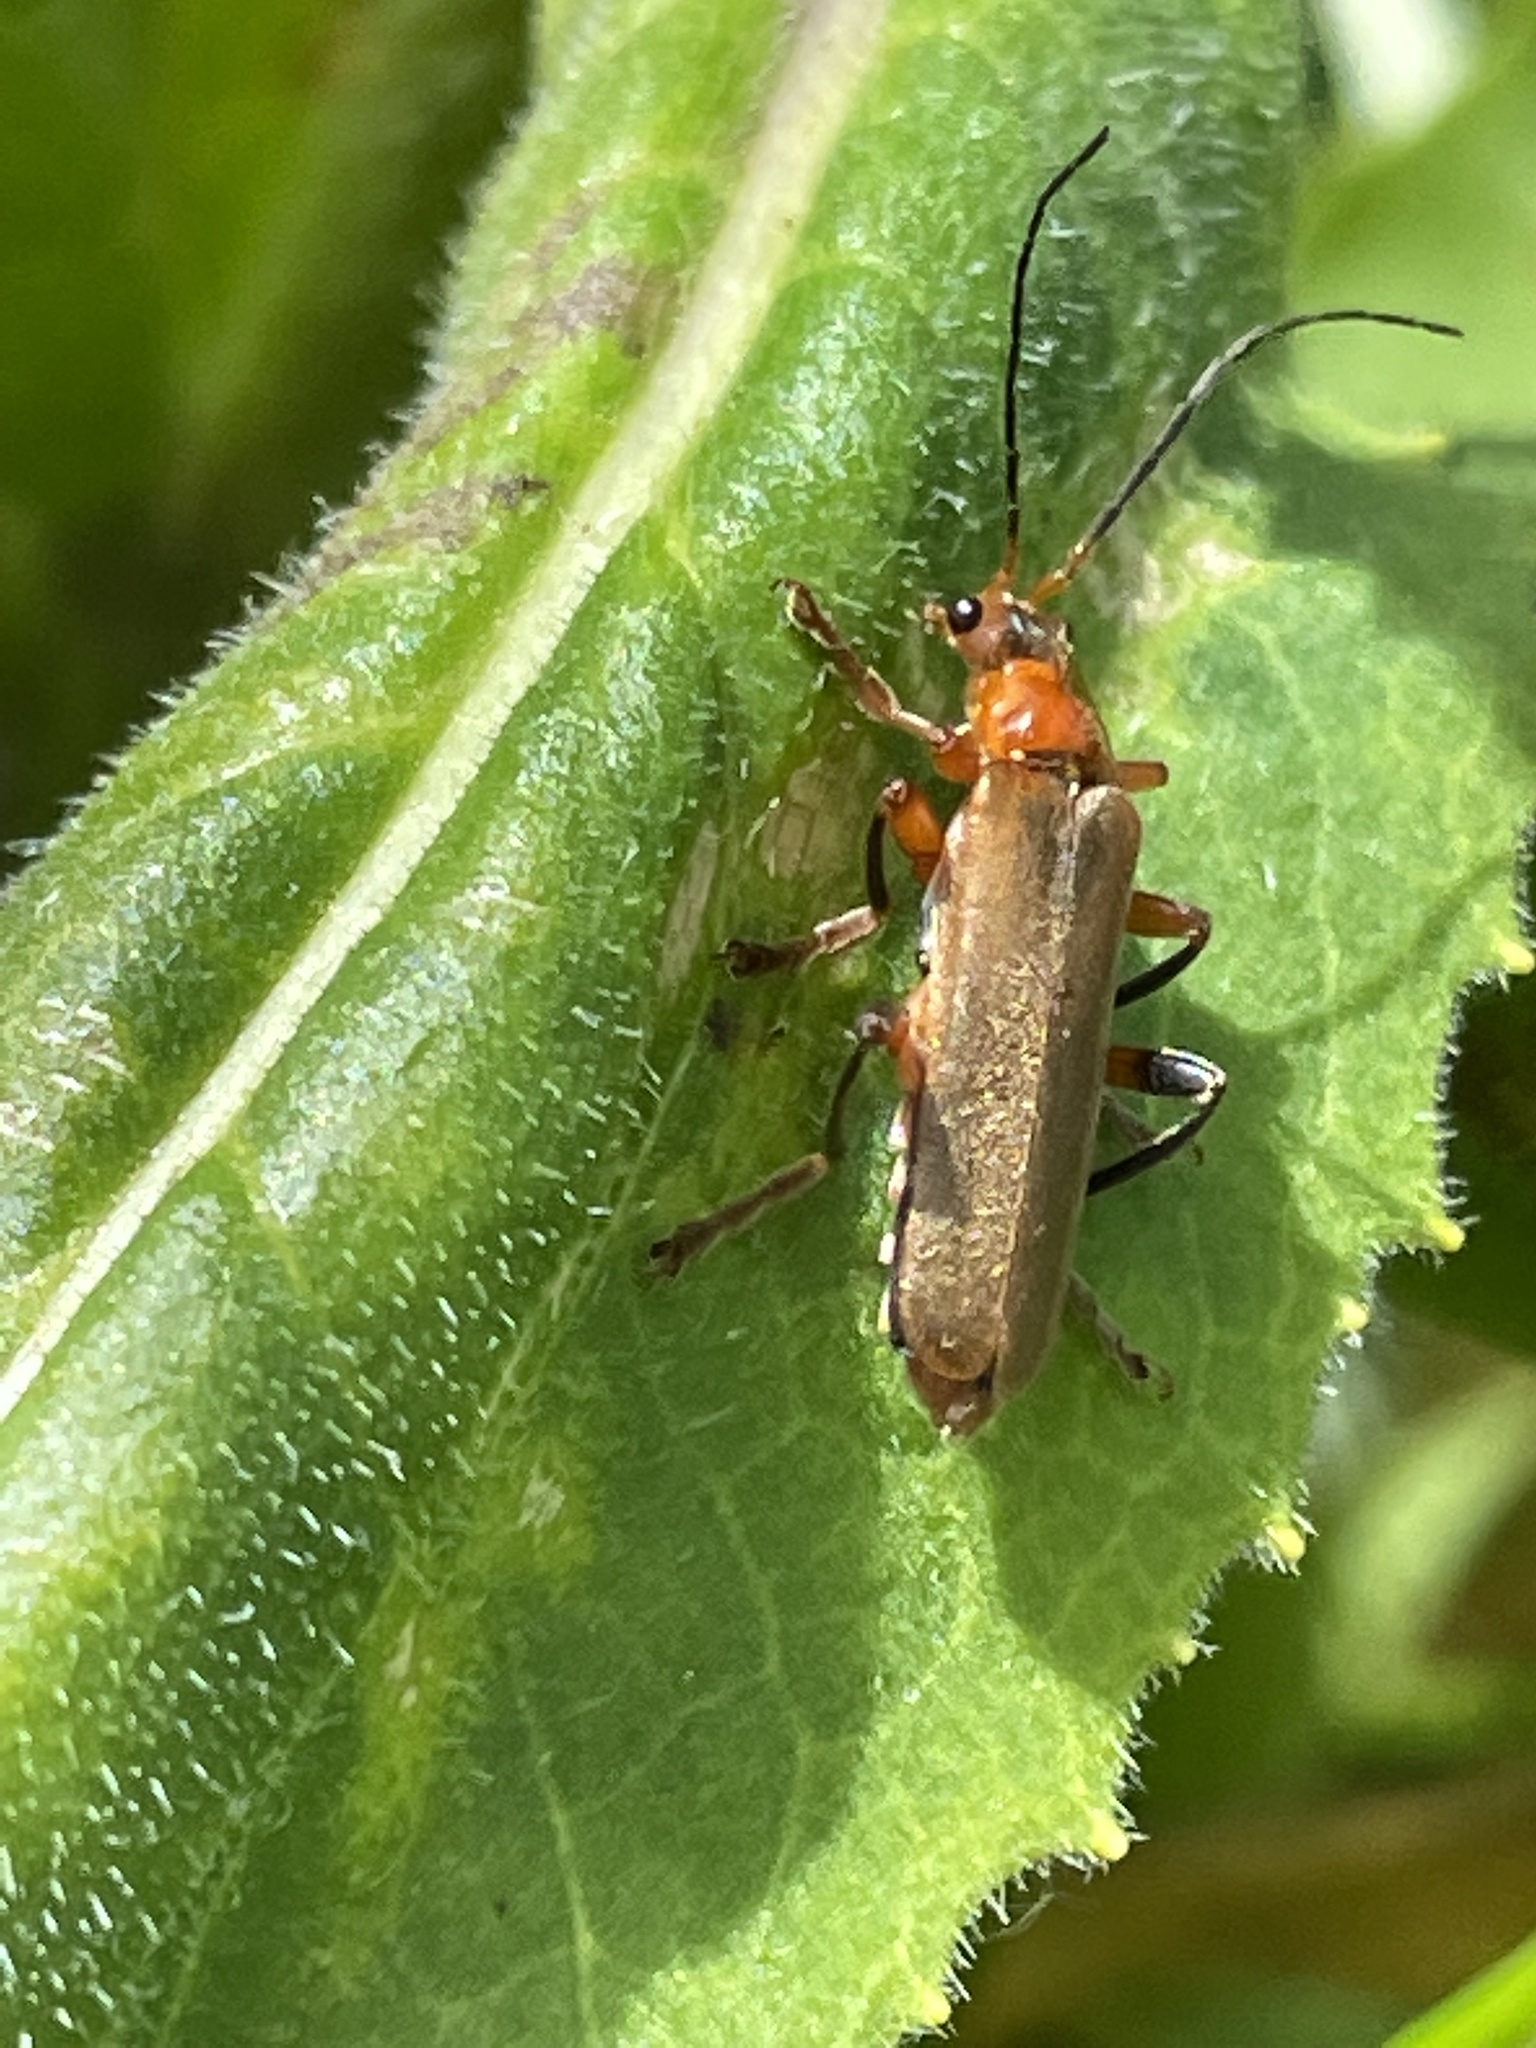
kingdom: Animalia
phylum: Arthropoda
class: Insecta
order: Coleoptera
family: Cantharidae
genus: Cantharis
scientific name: Cantharis livida
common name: Livid soldier beetle
